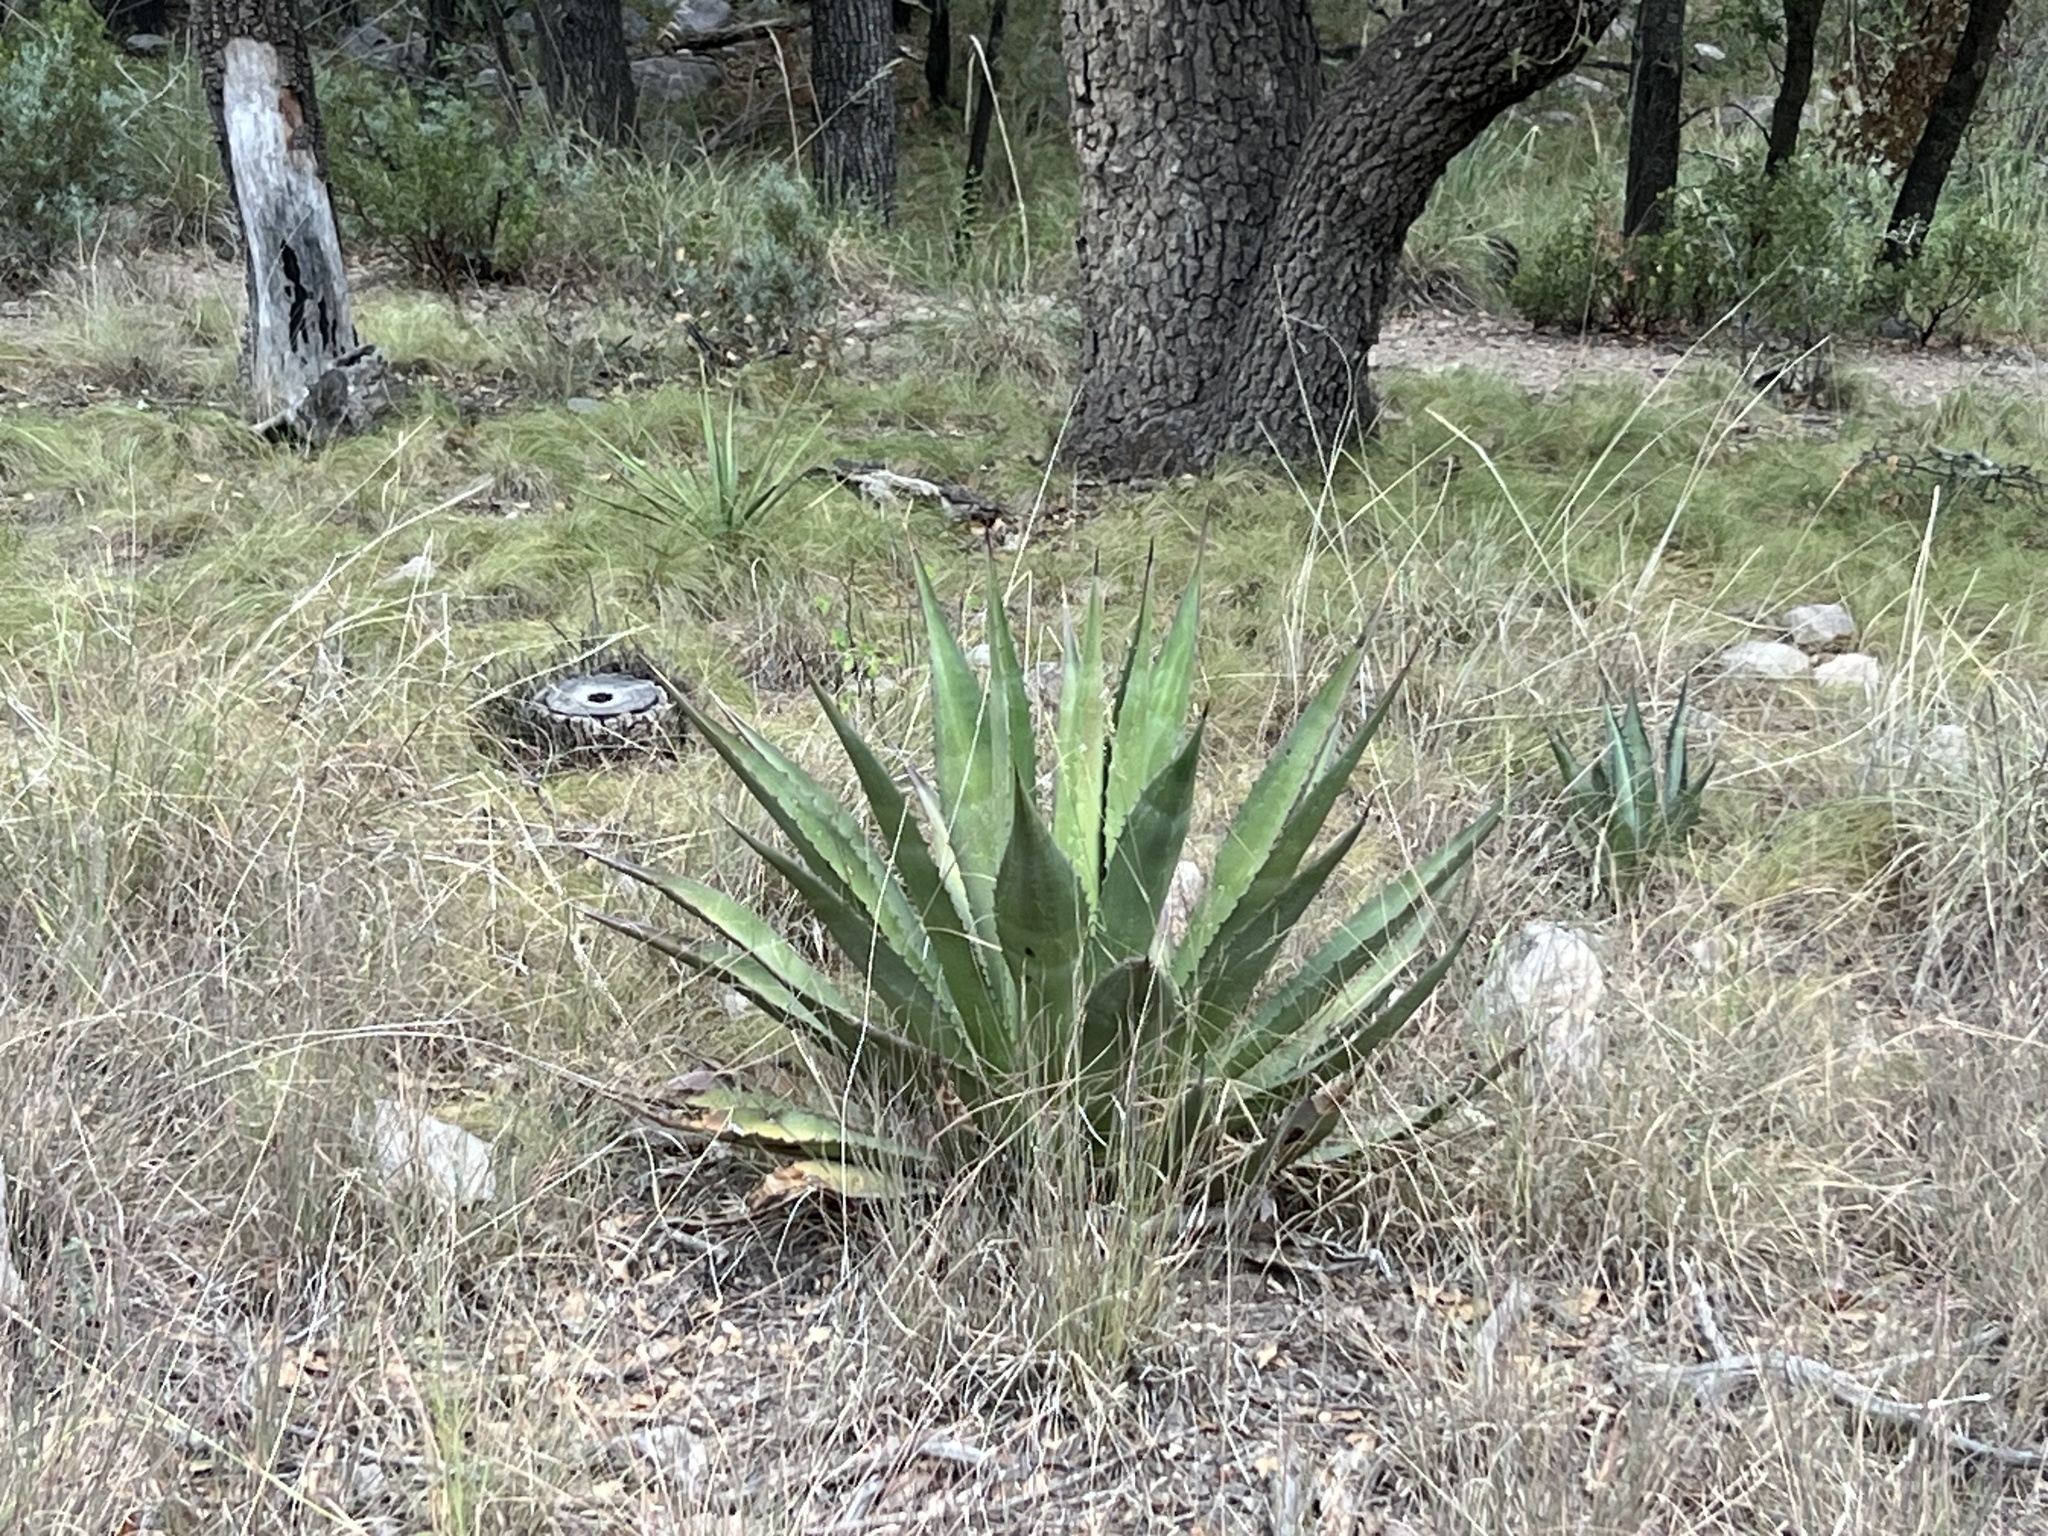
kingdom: Plantae
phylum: Tracheophyta
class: Liliopsida
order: Asparagales
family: Asparagaceae
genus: Agave
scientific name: Agave palmeri
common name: Palmer agave
